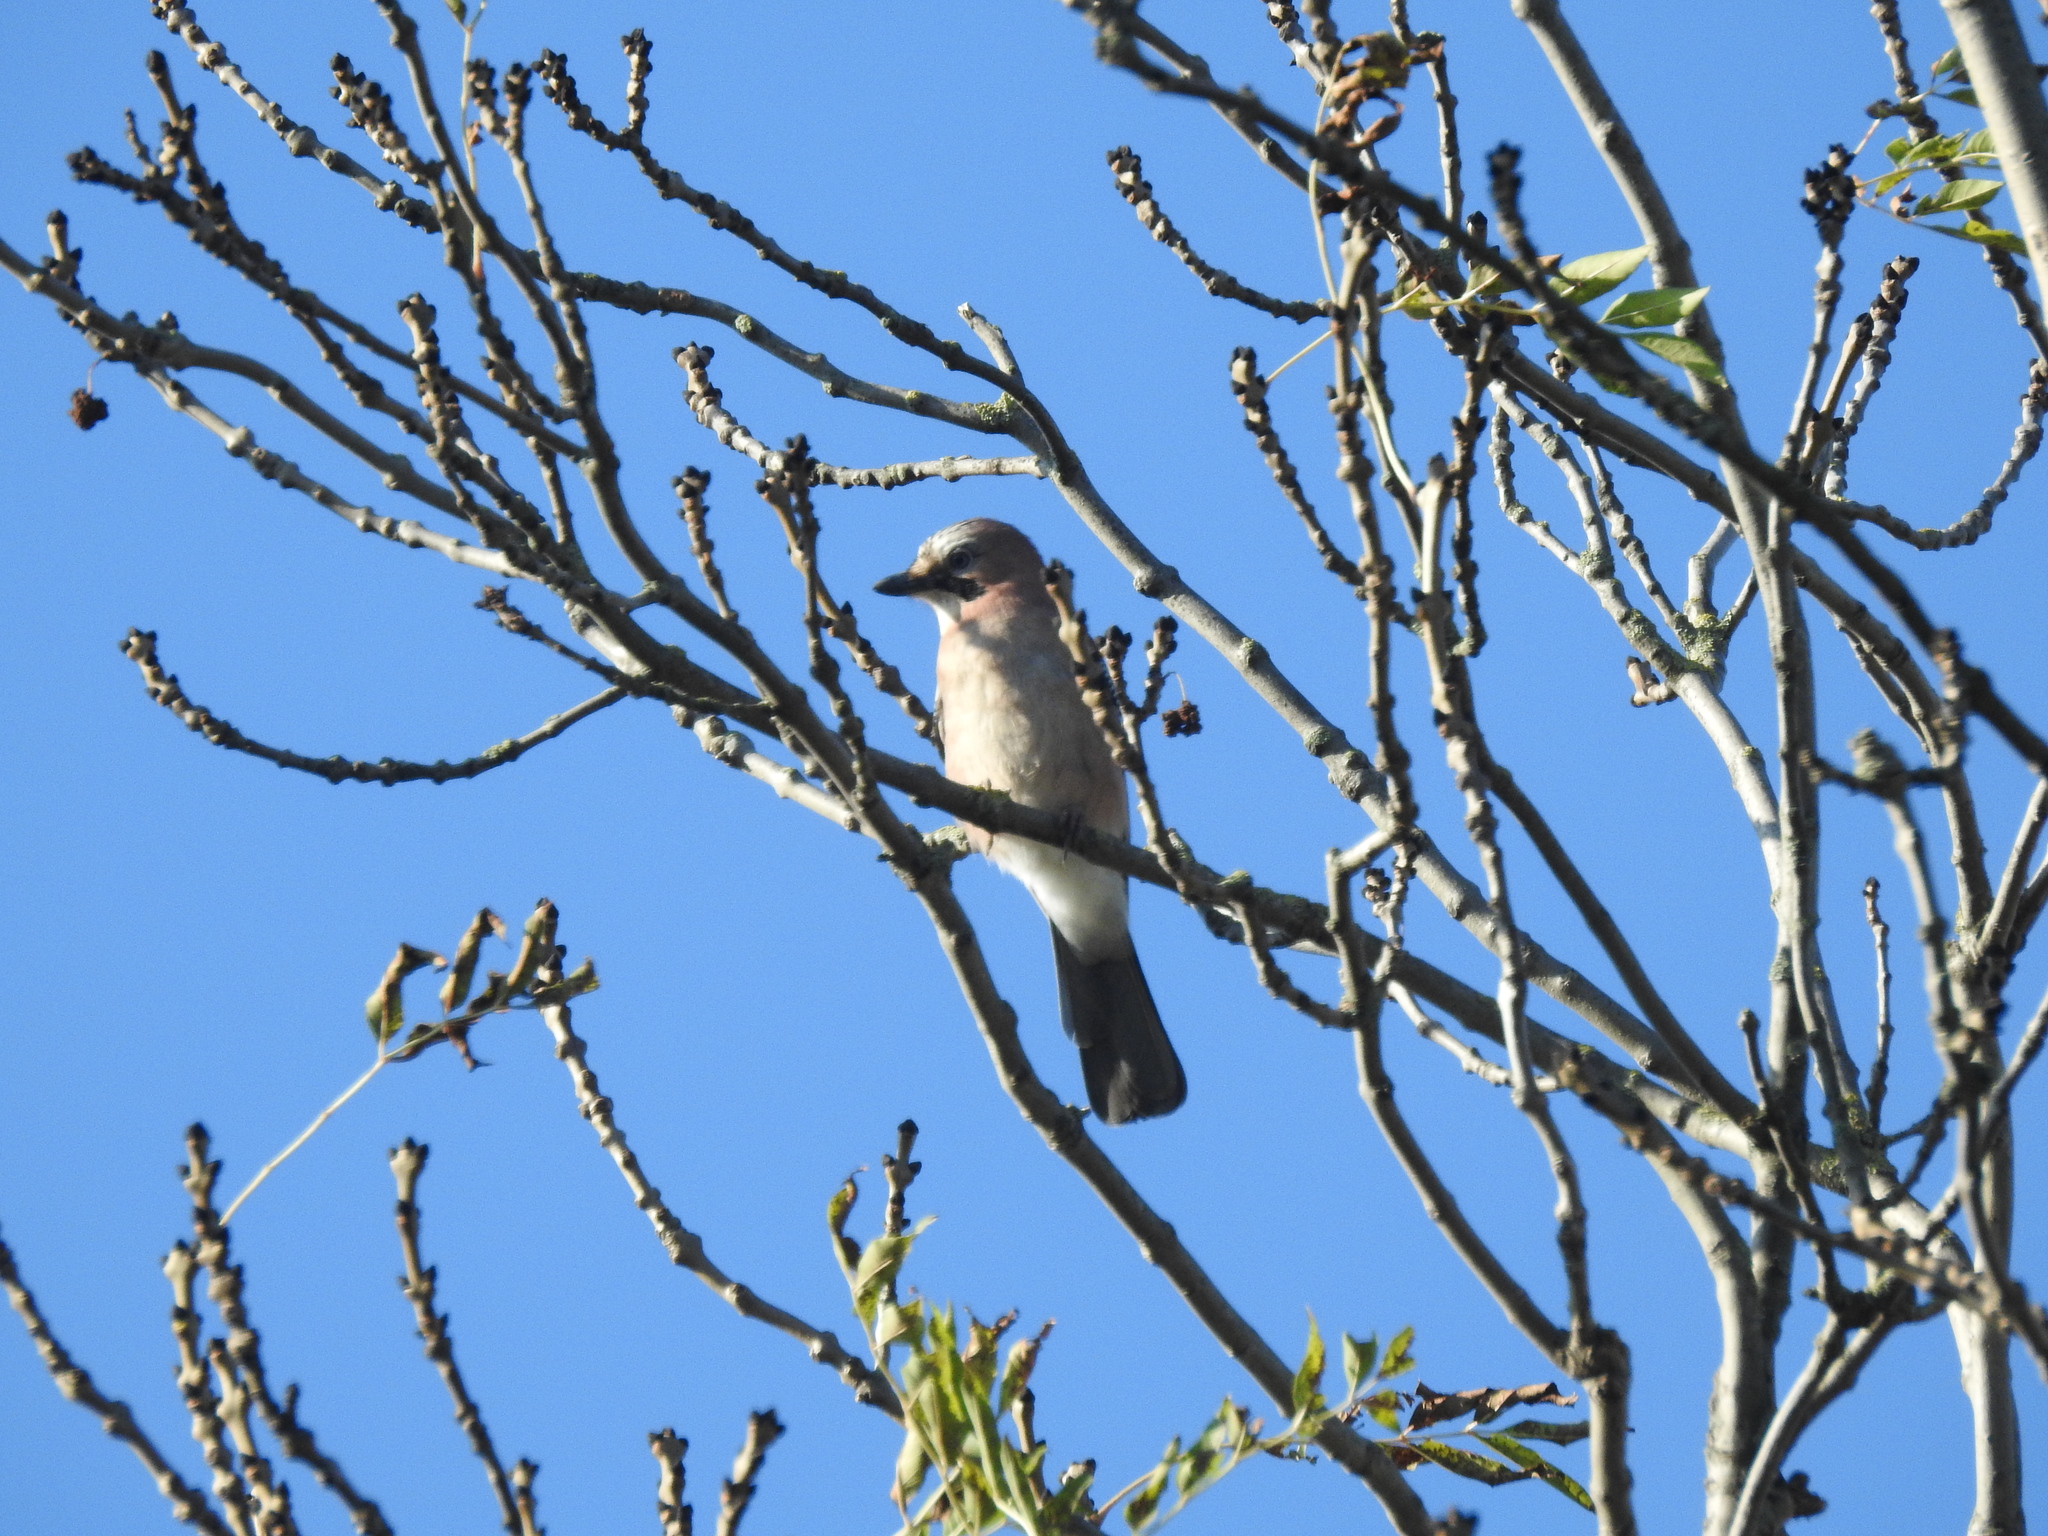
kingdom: Animalia
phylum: Chordata
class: Aves
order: Passeriformes
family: Corvidae
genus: Garrulus
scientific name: Garrulus glandarius
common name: Eurasian jay
